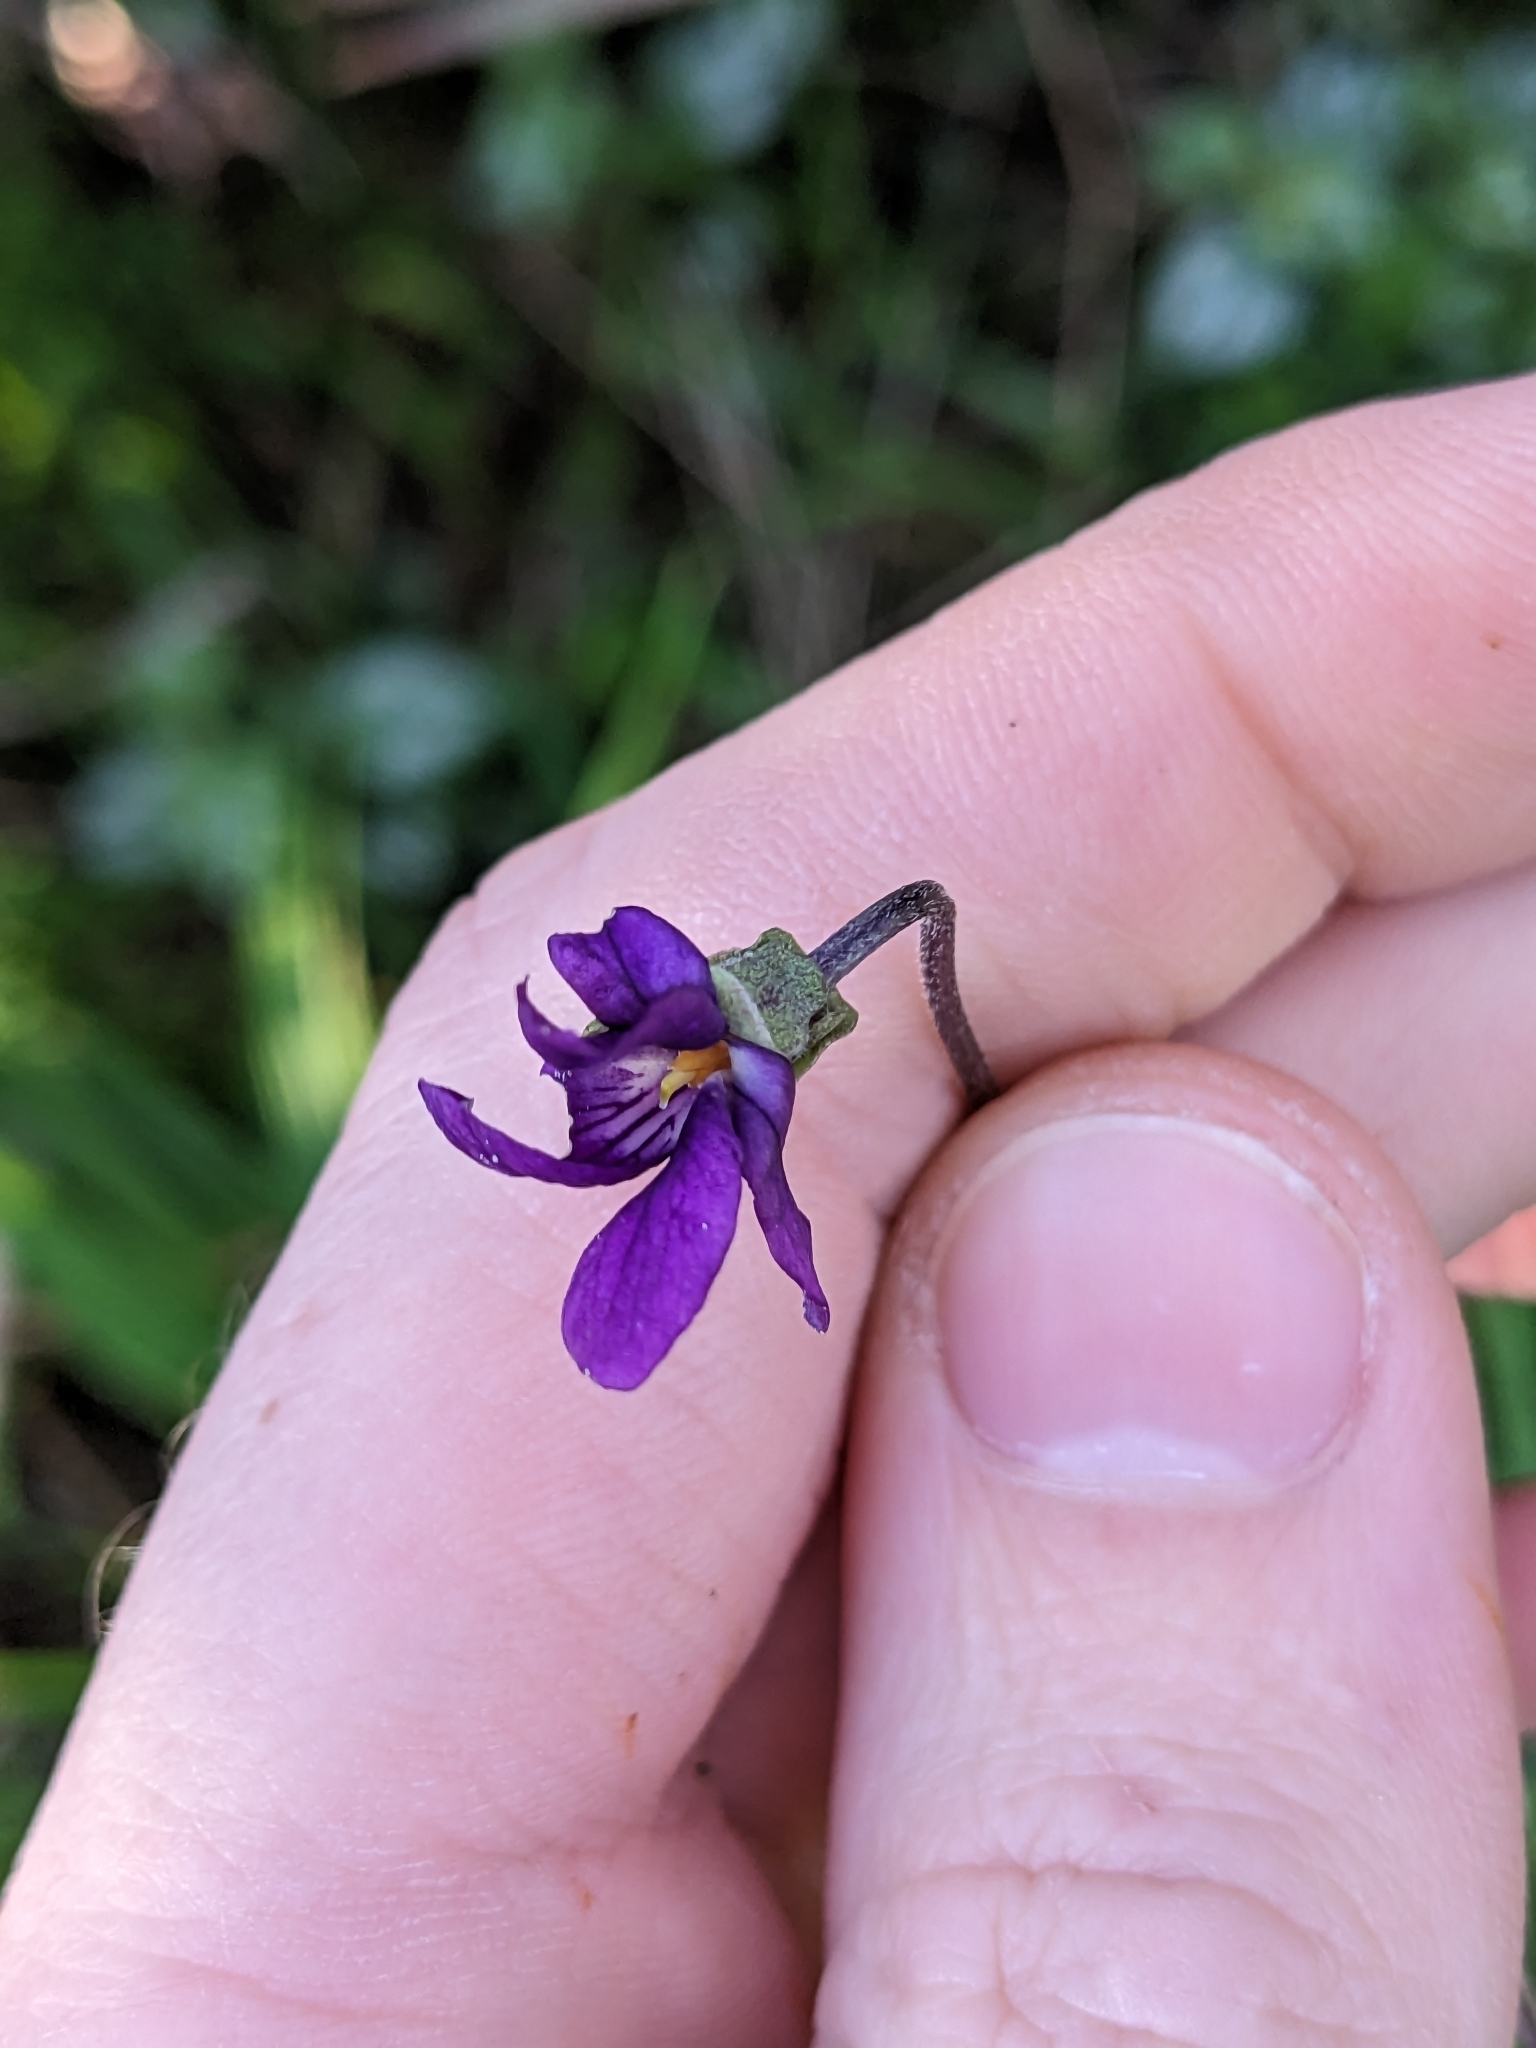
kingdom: Plantae
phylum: Tracheophyta
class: Magnoliopsida
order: Malpighiales
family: Violaceae
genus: Viola
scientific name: Viola odorata
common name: Sweet violet
